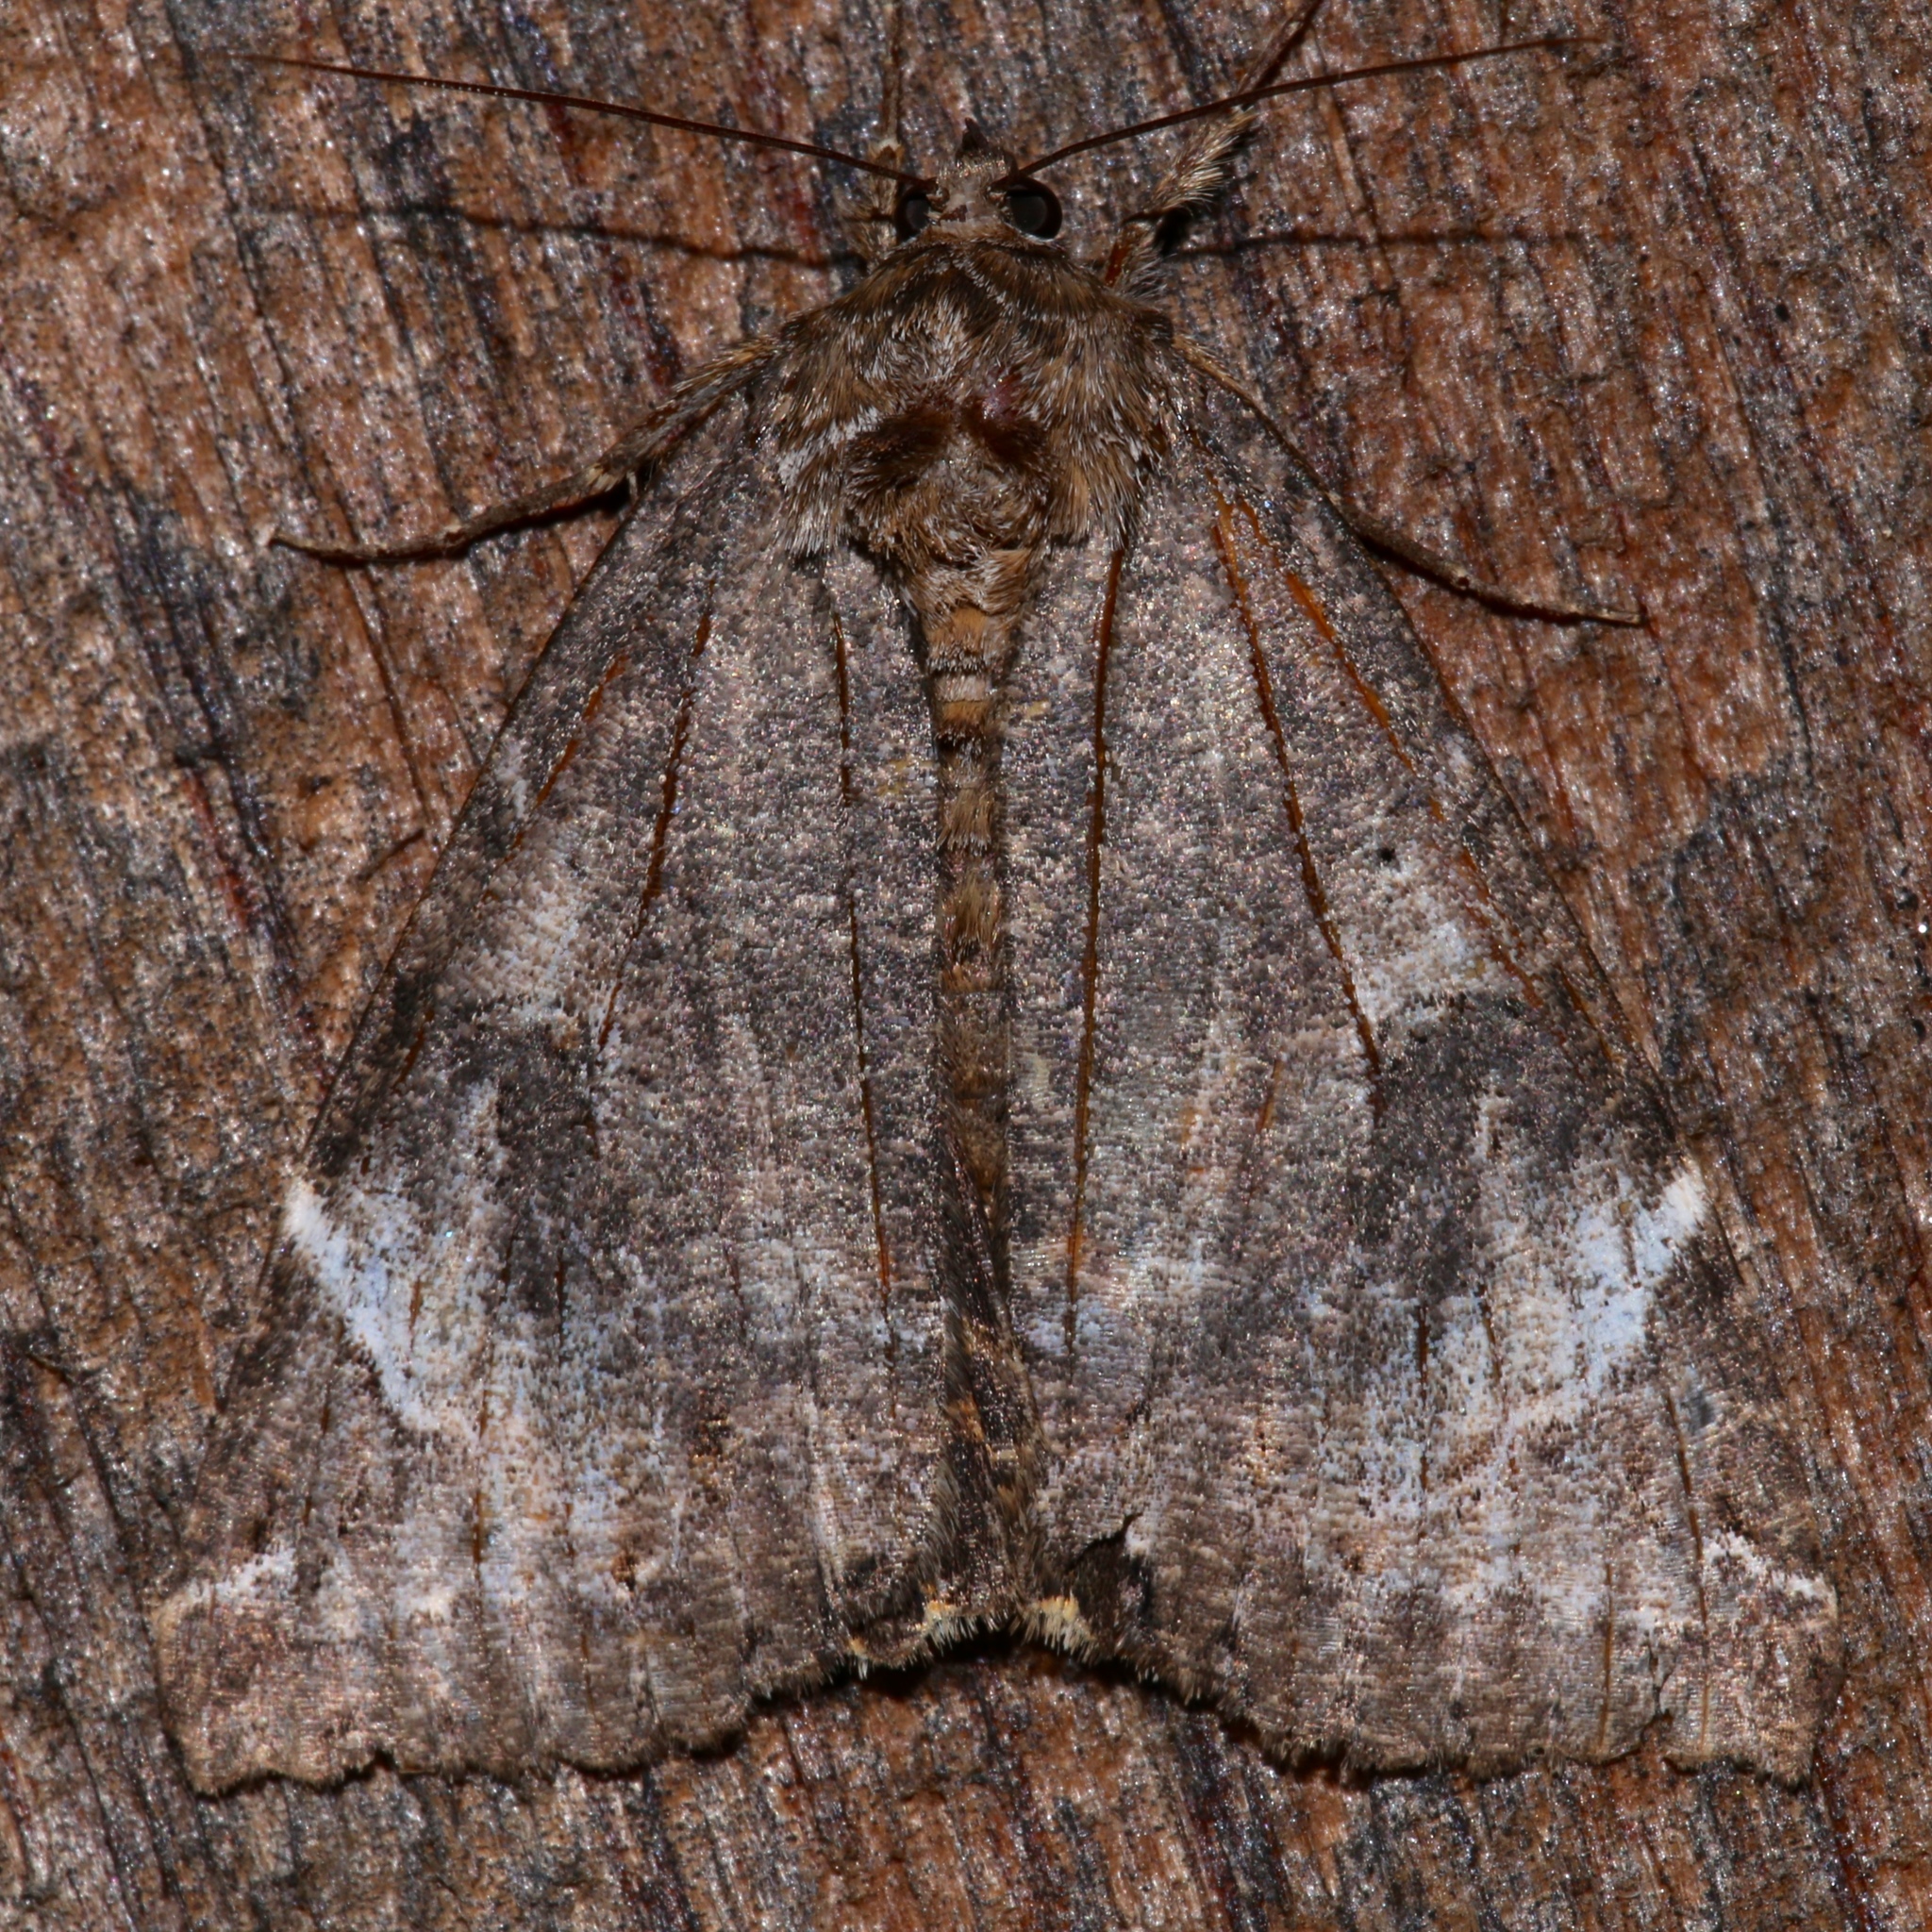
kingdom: Animalia
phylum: Arthropoda
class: Insecta
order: Lepidoptera
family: Erebidae
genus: Euparthenos
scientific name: Euparthenos nubilis
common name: Locust underwing
